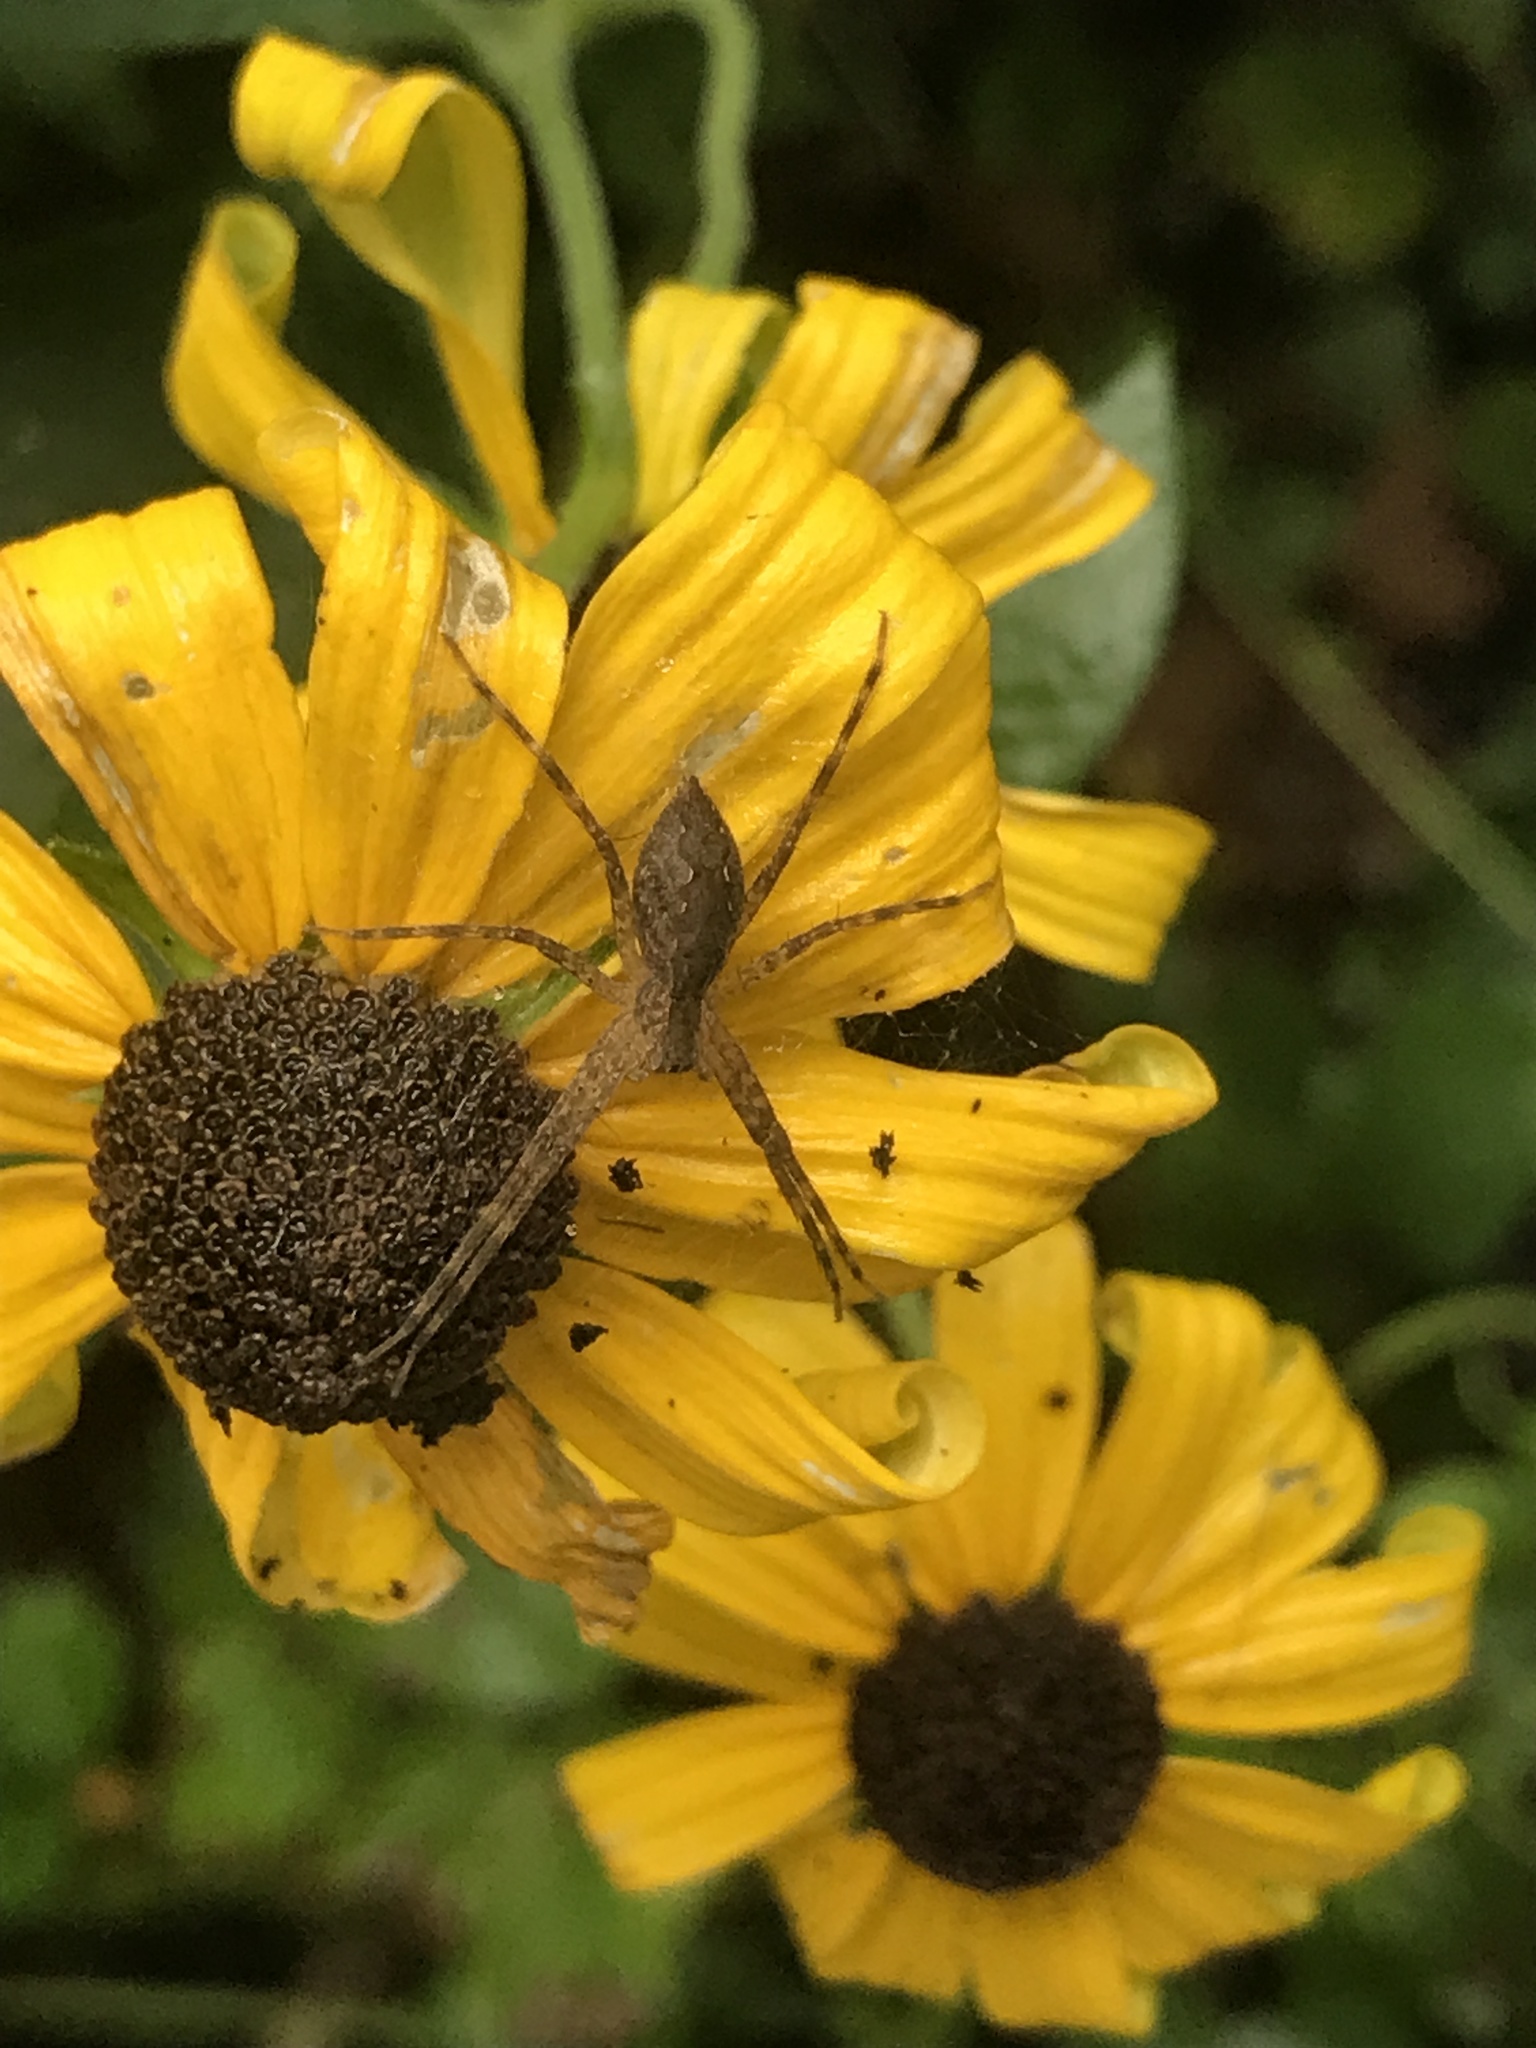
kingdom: Animalia
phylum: Arthropoda
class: Arachnida
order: Araneae
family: Pisauridae
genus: Pisaurina
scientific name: Pisaurina mira
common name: American nursery web spider
